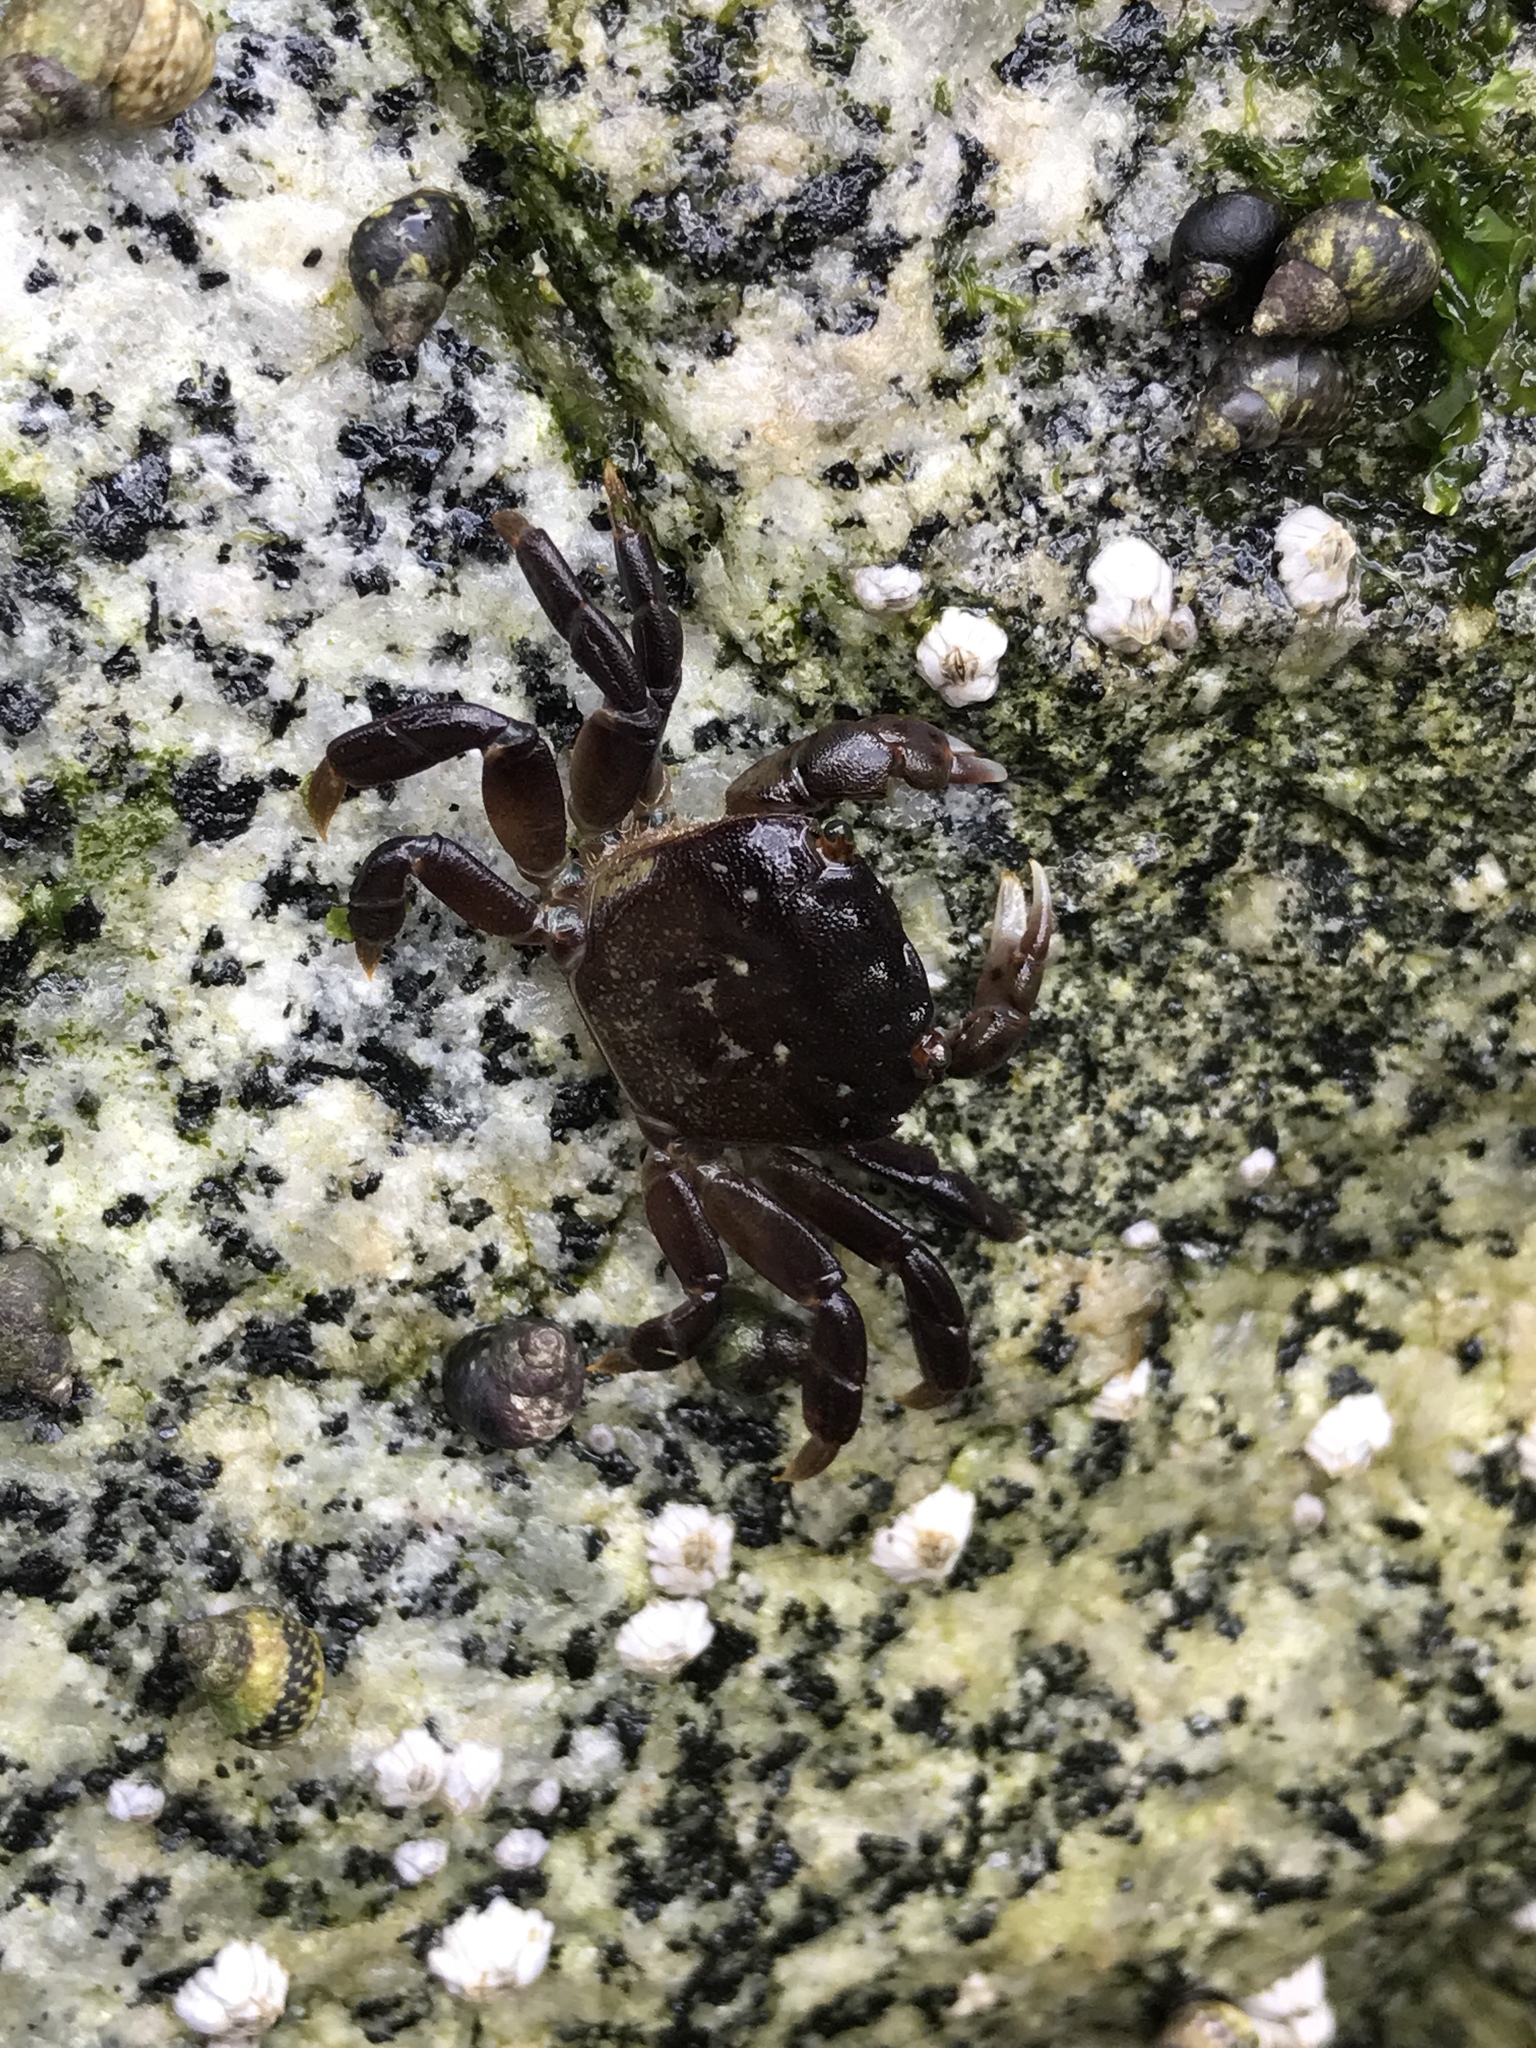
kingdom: Animalia
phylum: Arthropoda
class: Malacostraca
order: Decapoda
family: Varunidae
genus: Hemigrapsus
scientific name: Hemigrapsus nudus
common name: Purple shore crab
